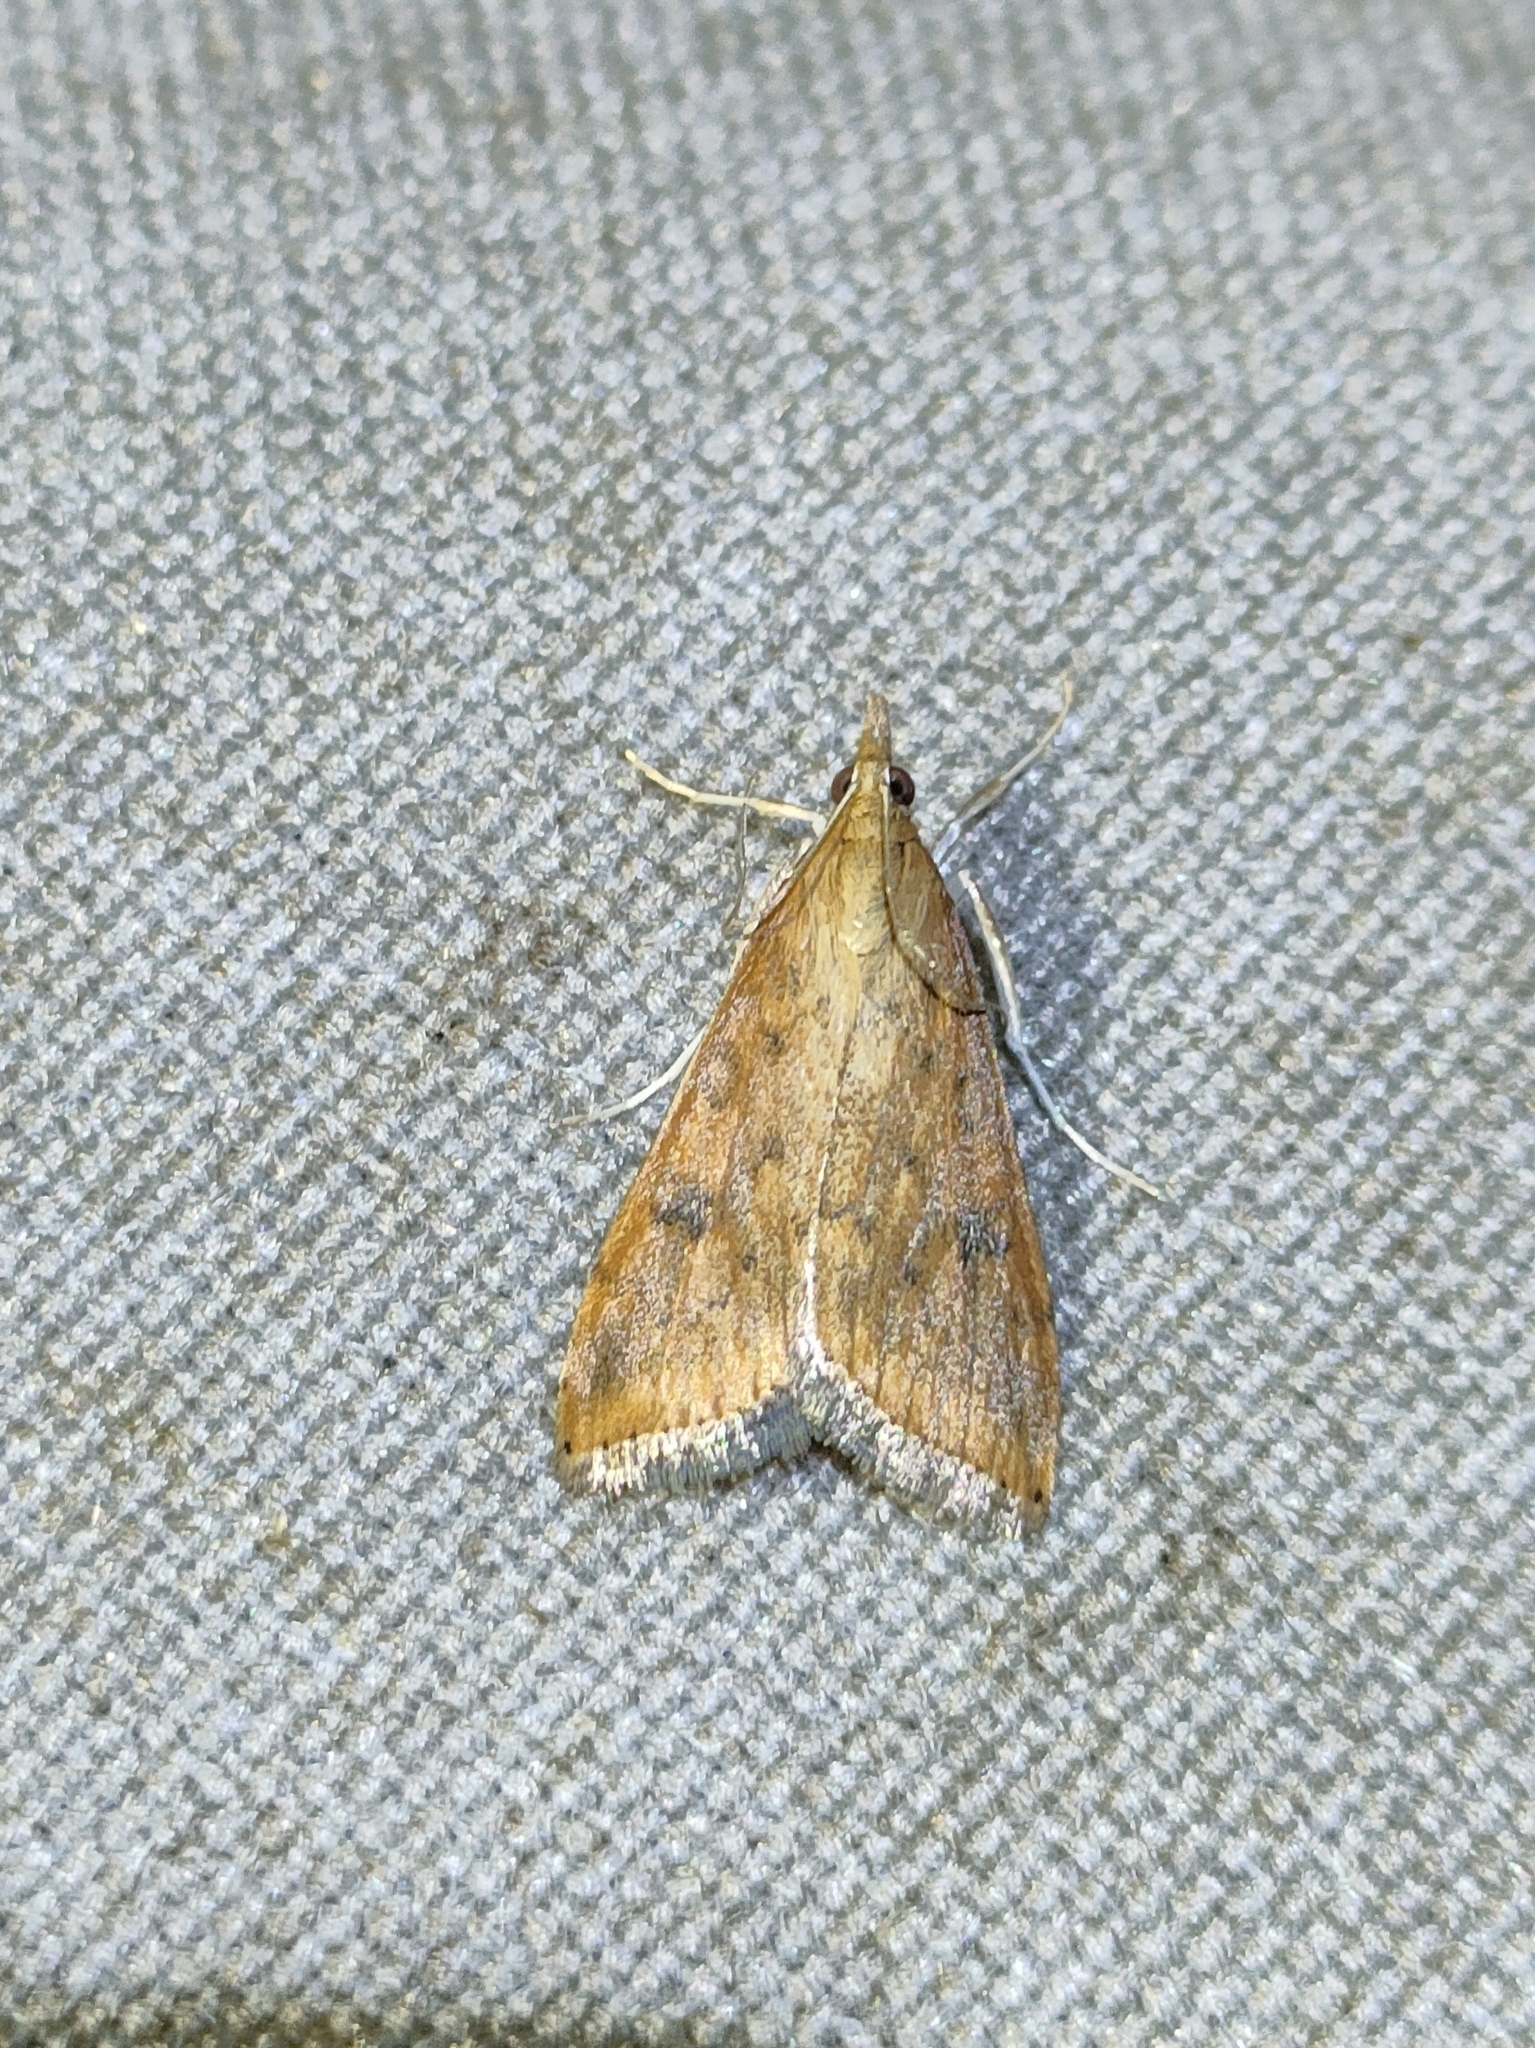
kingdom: Animalia
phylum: Arthropoda
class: Insecta
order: Lepidoptera
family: Crambidae
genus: Udea
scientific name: Udea ferrugalis
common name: Rusty dot
